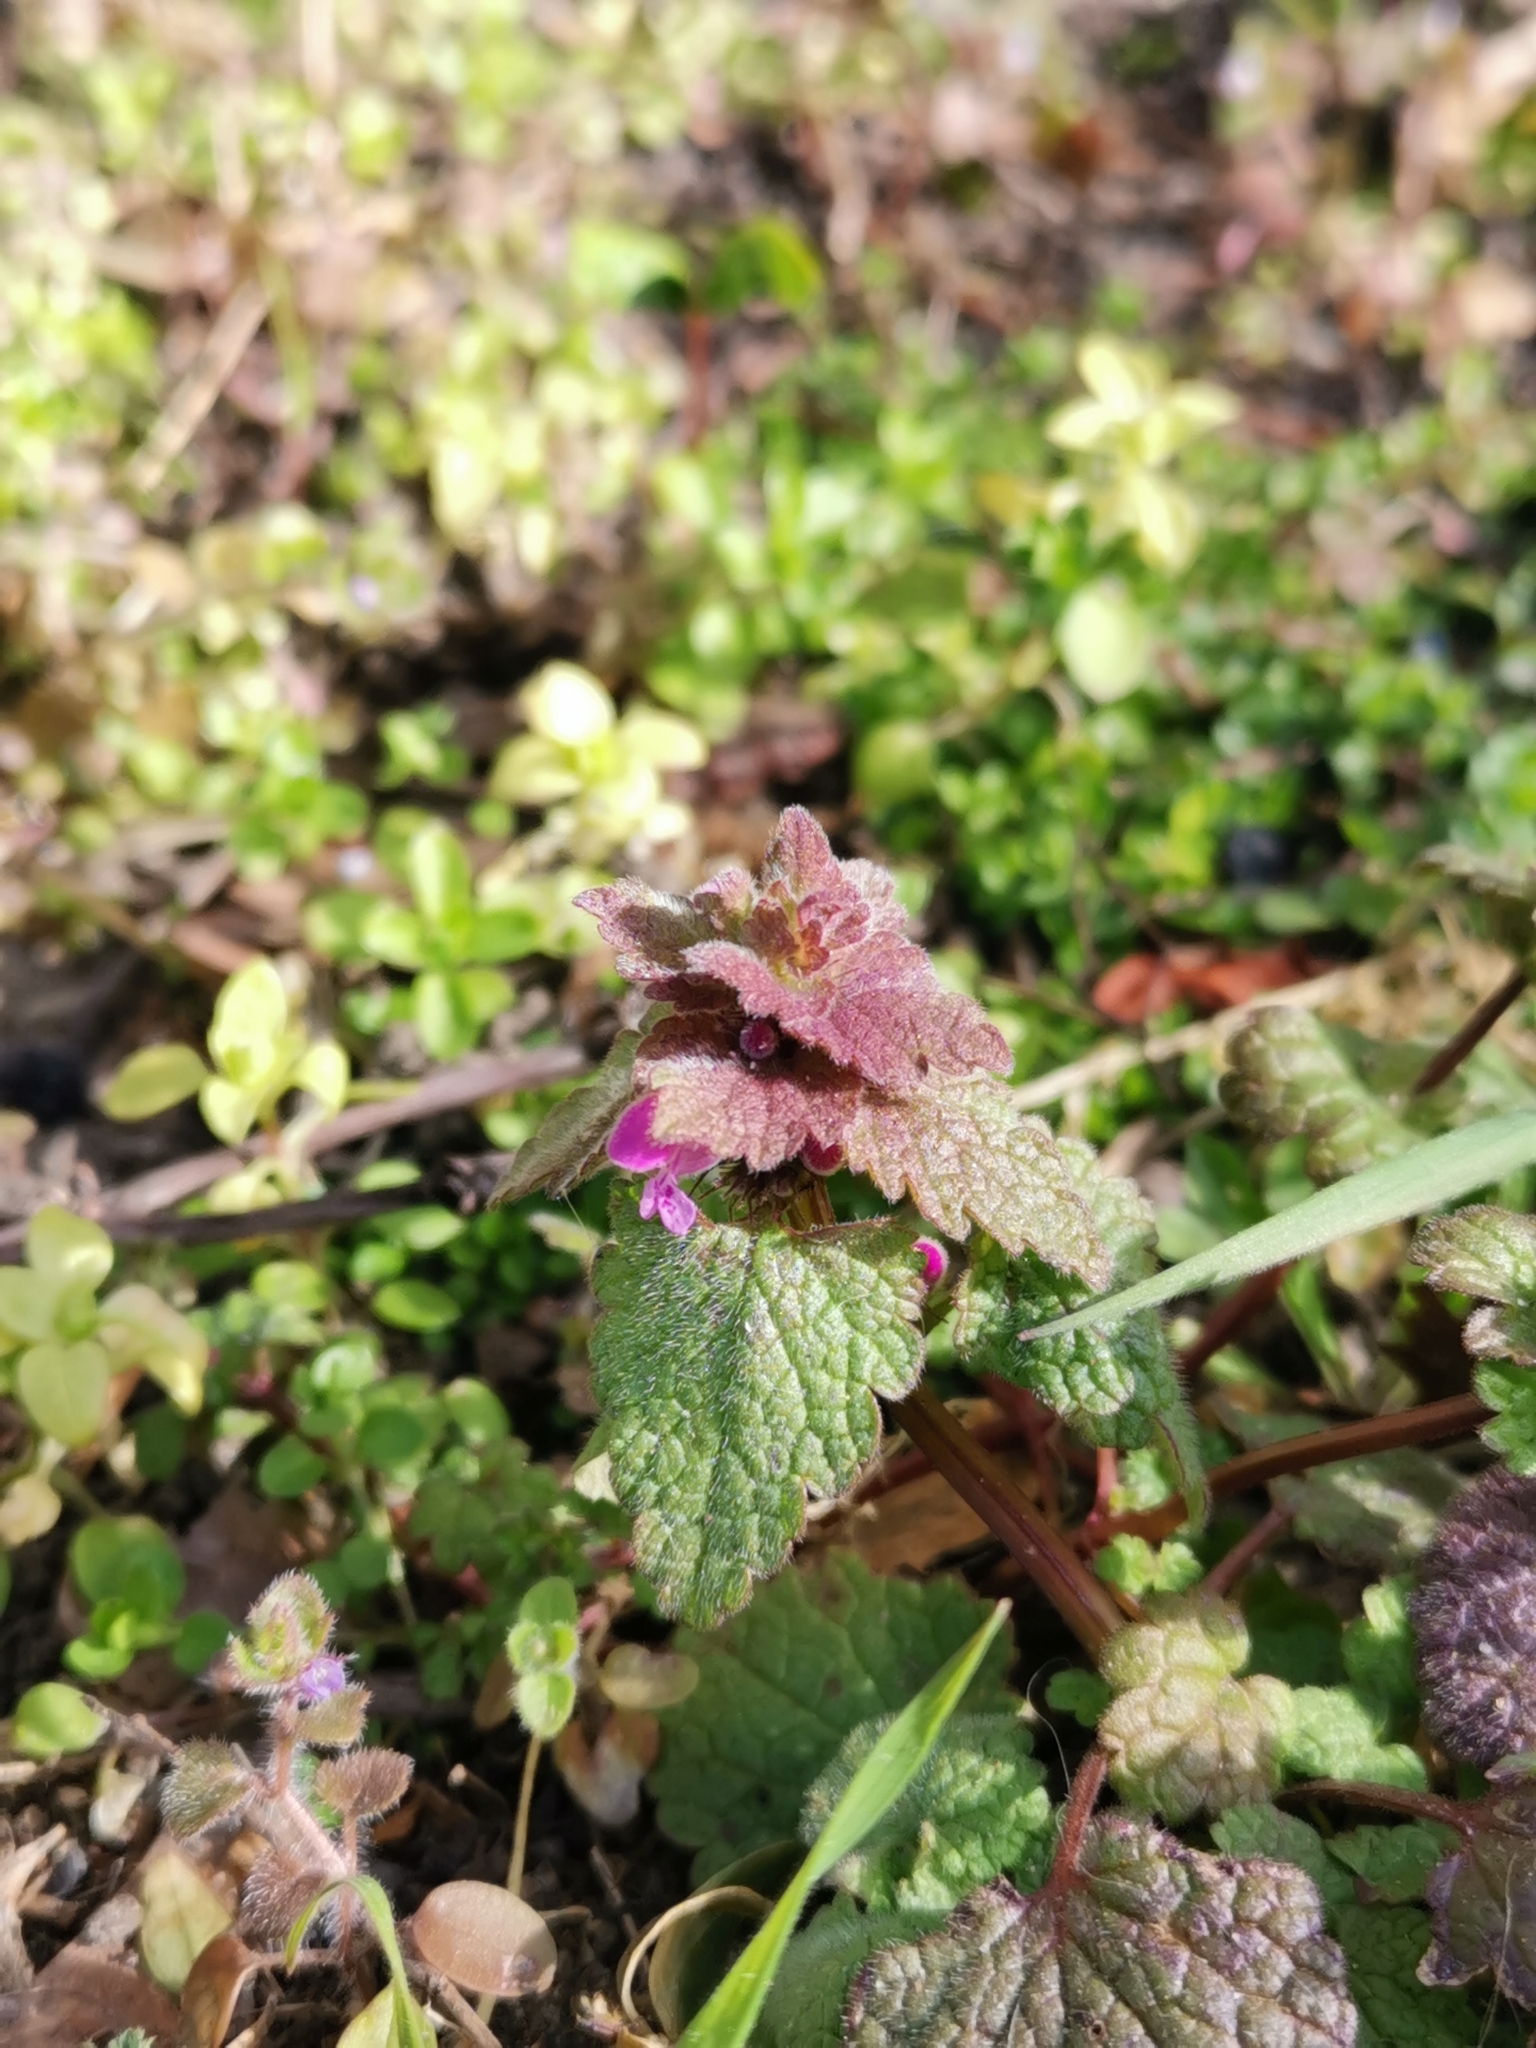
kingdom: Plantae
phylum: Tracheophyta
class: Magnoliopsida
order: Lamiales
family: Lamiaceae
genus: Lamium
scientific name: Lamium purpureum
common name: Red dead-nettle
